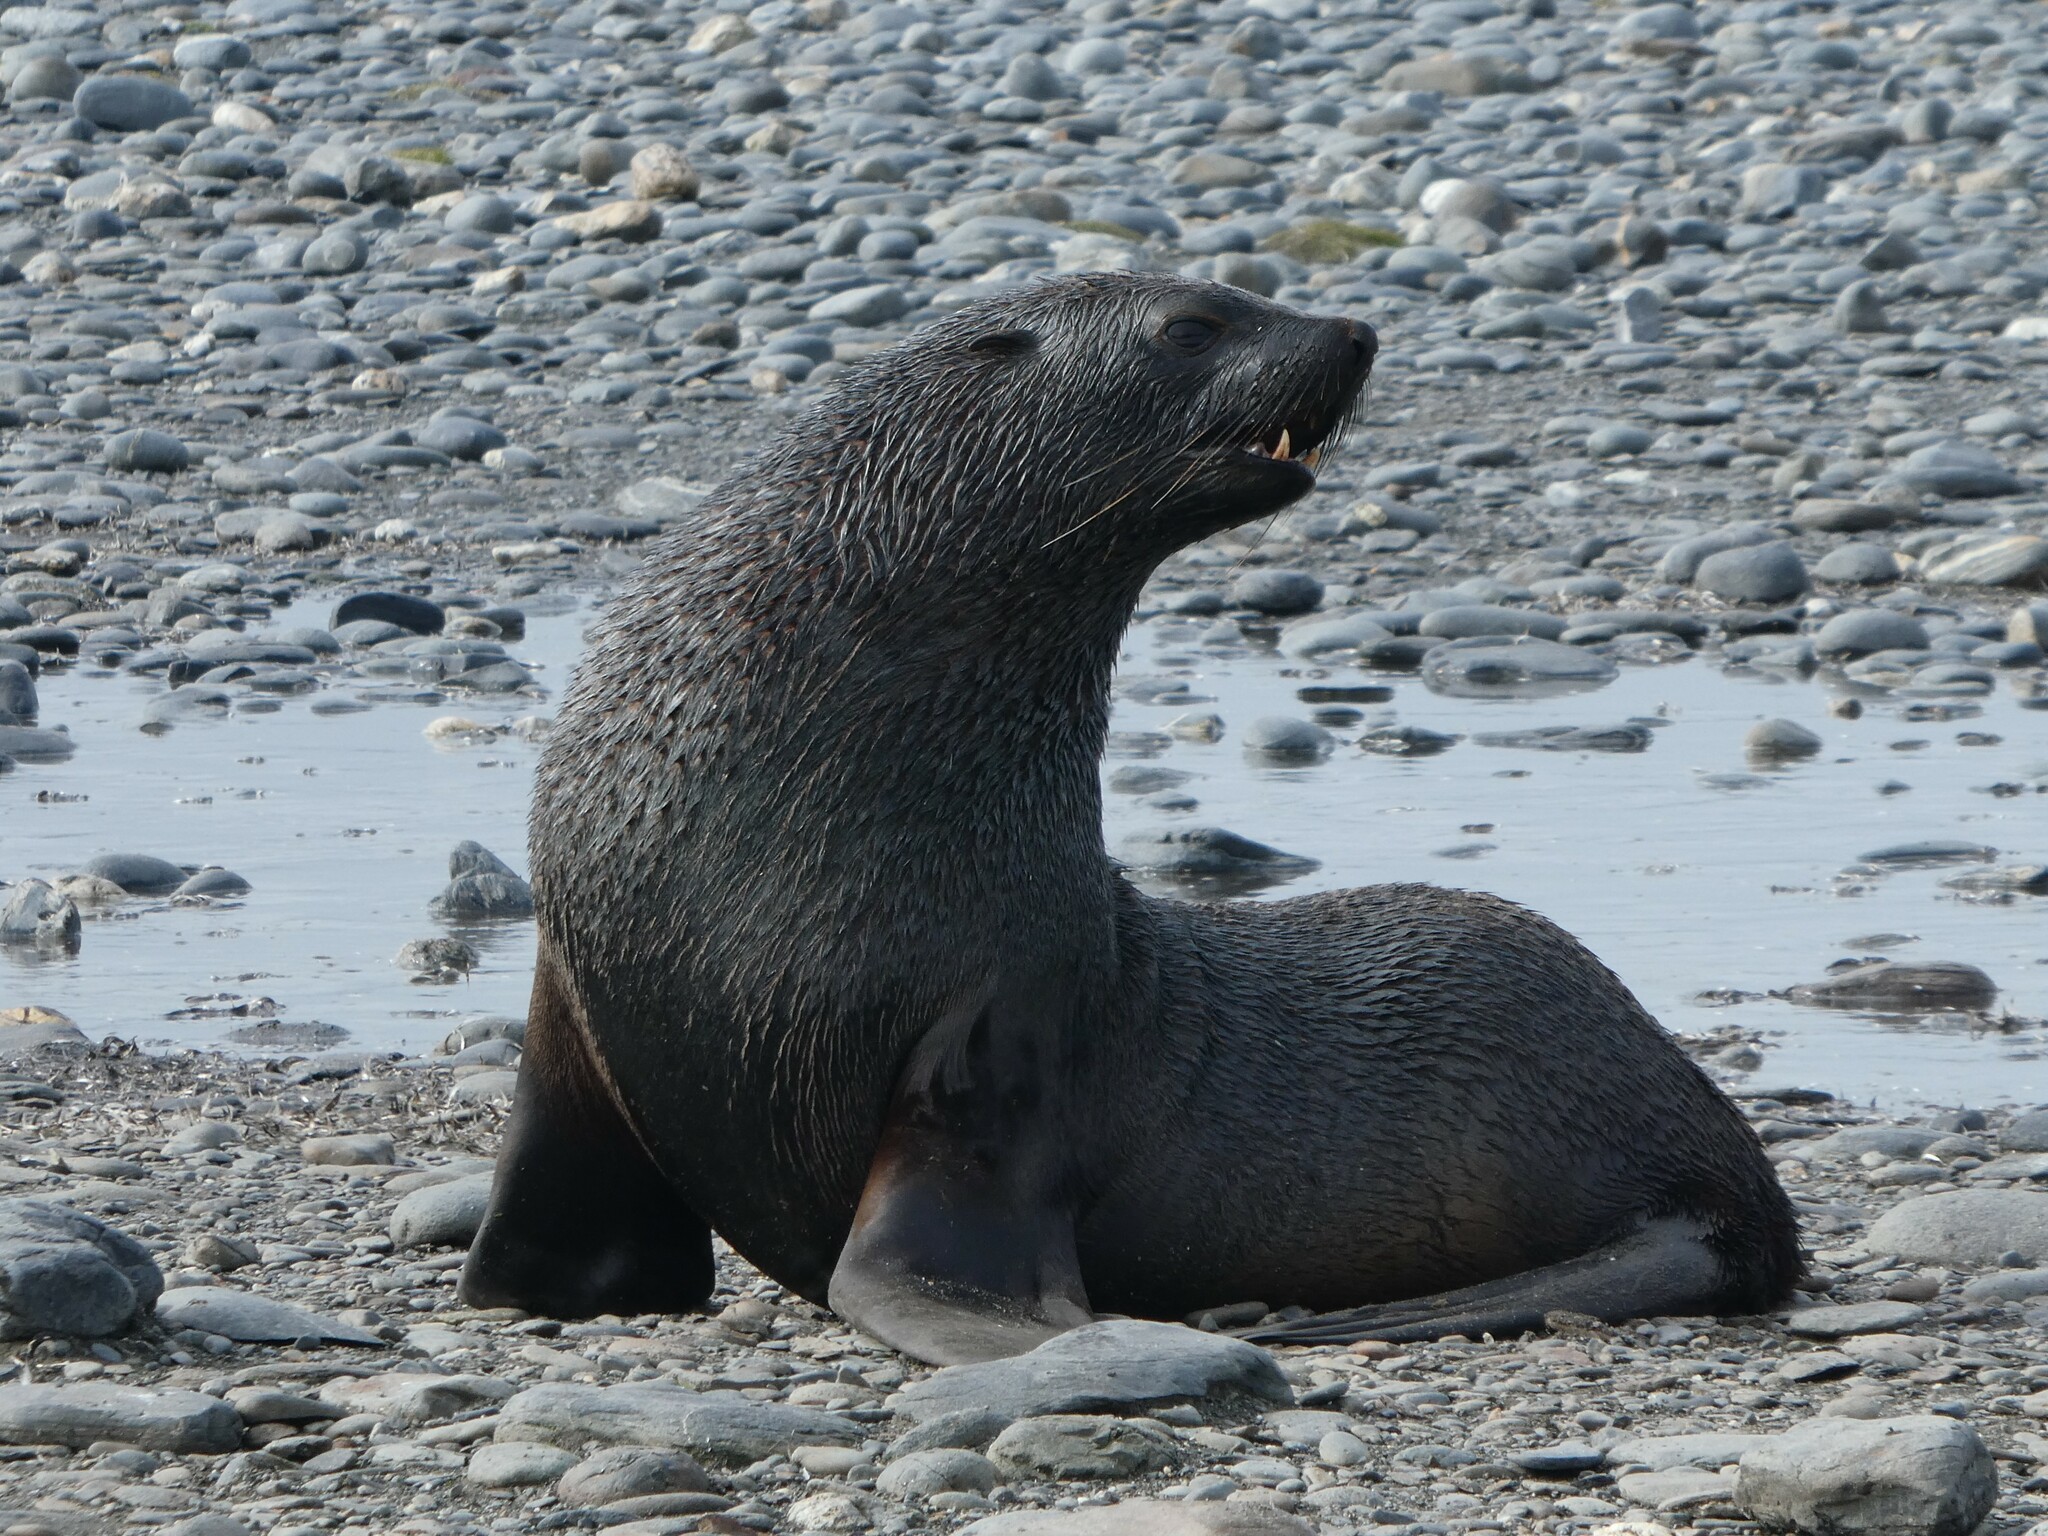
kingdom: Animalia
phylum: Chordata
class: Mammalia
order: Carnivora
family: Otariidae
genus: Arctocephalus
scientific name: Arctocephalus gazella
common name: Antarctic fur seal
